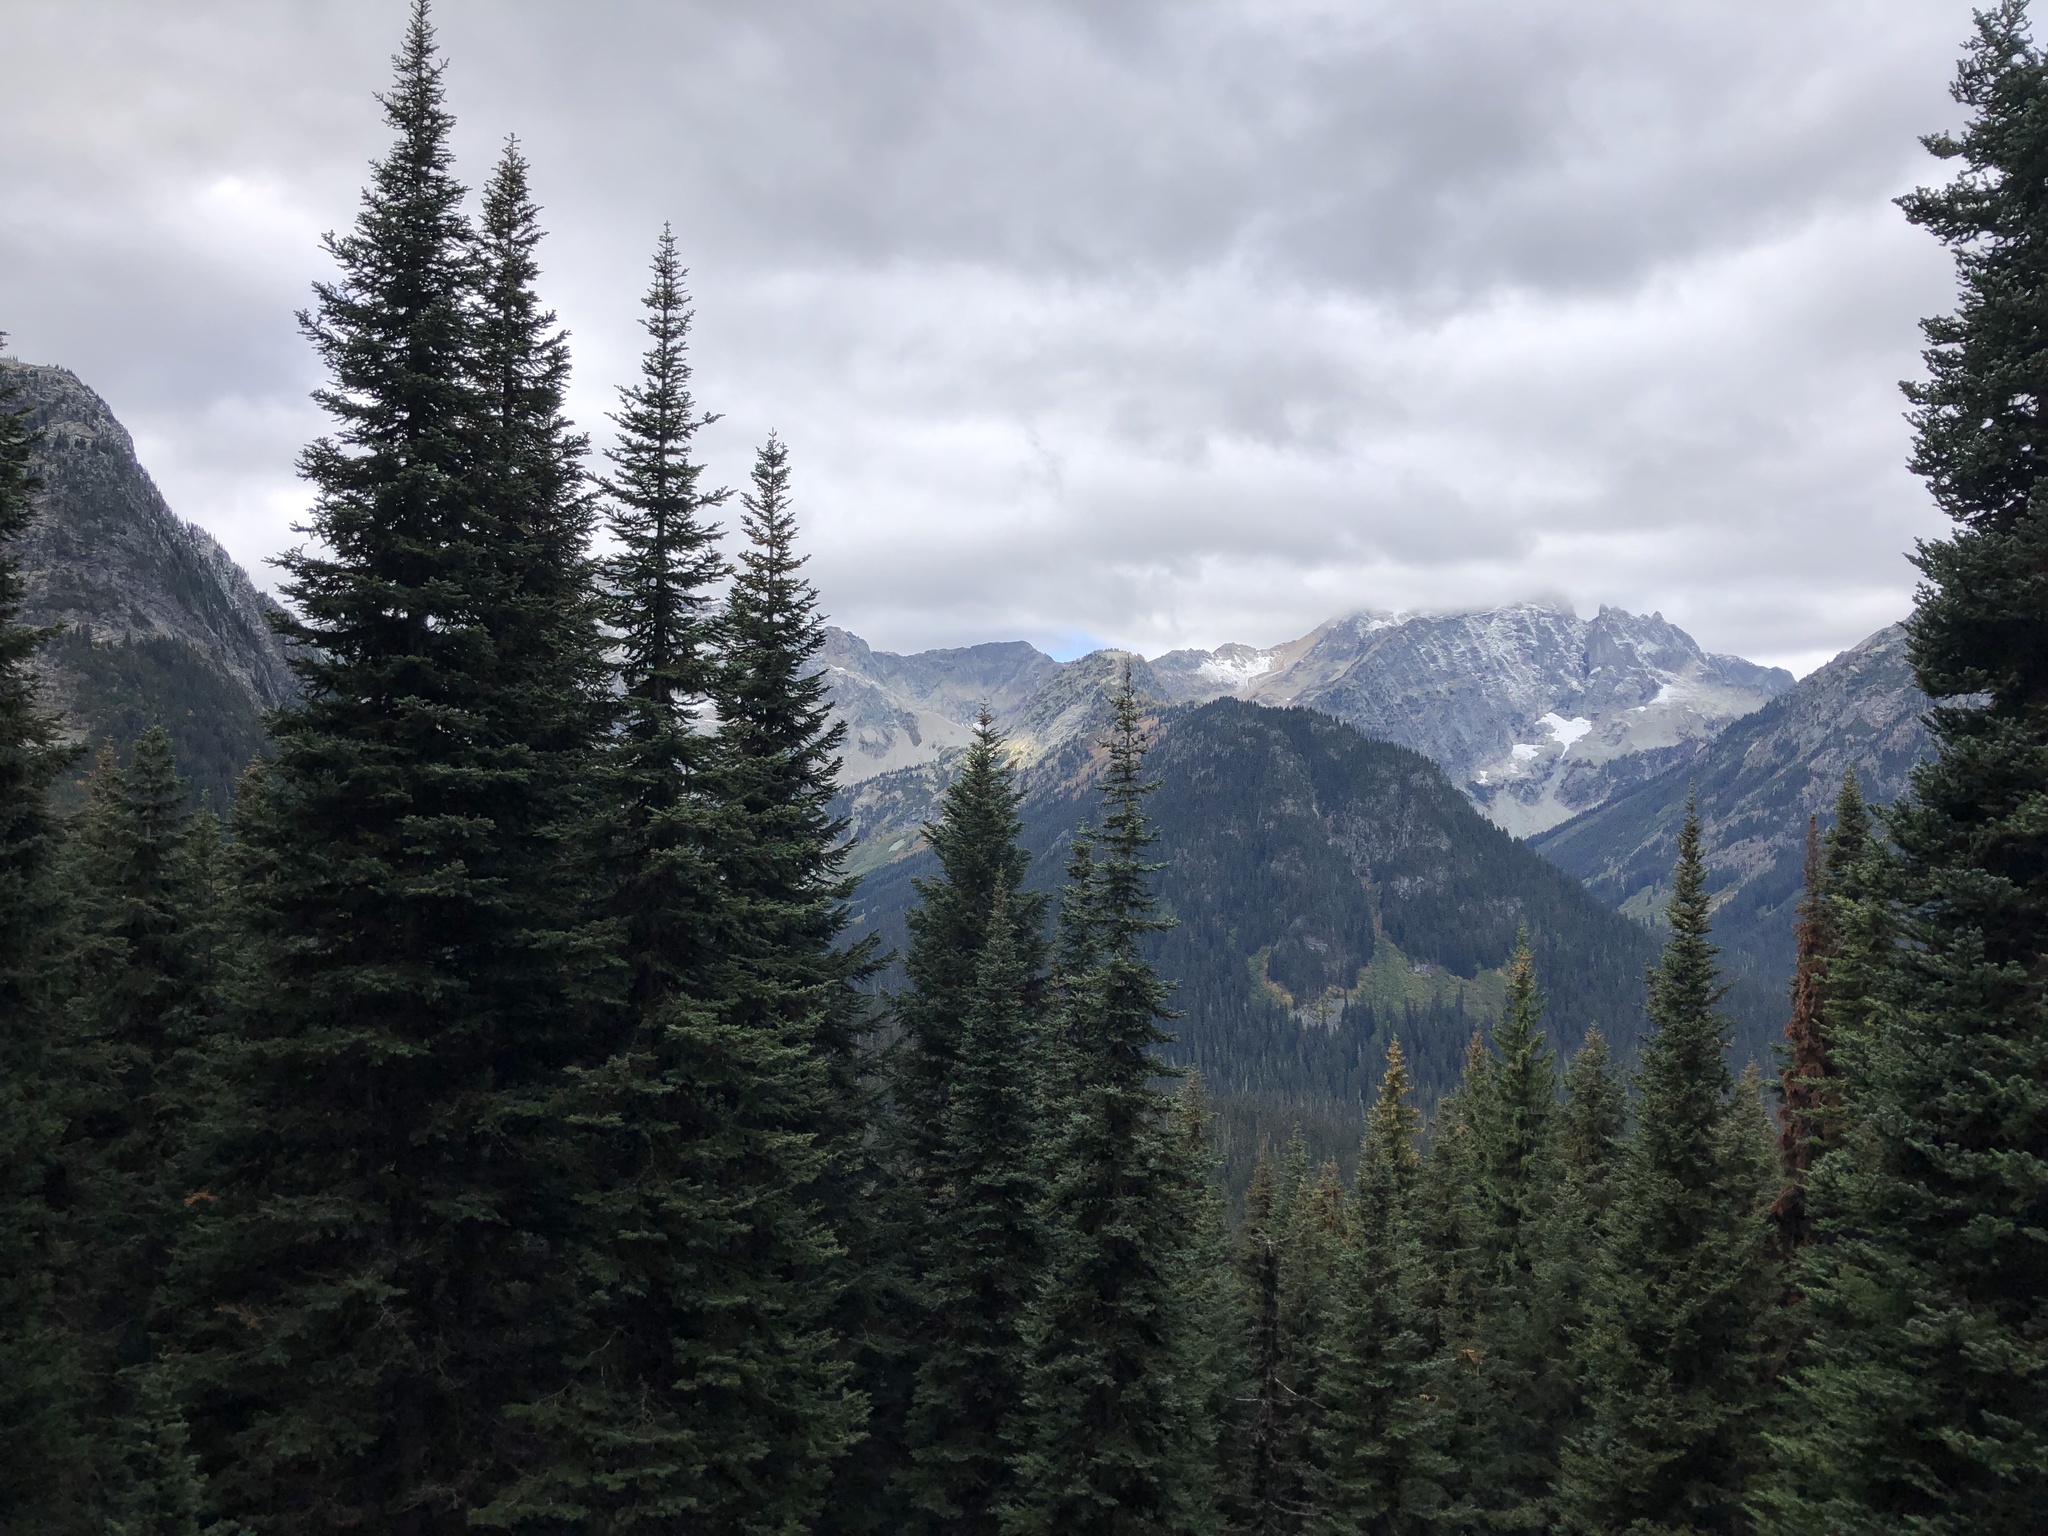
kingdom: Plantae
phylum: Tracheophyta
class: Pinopsida
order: Pinales
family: Pinaceae
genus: Abies
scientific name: Abies amabilis
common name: Pacific silver fir
